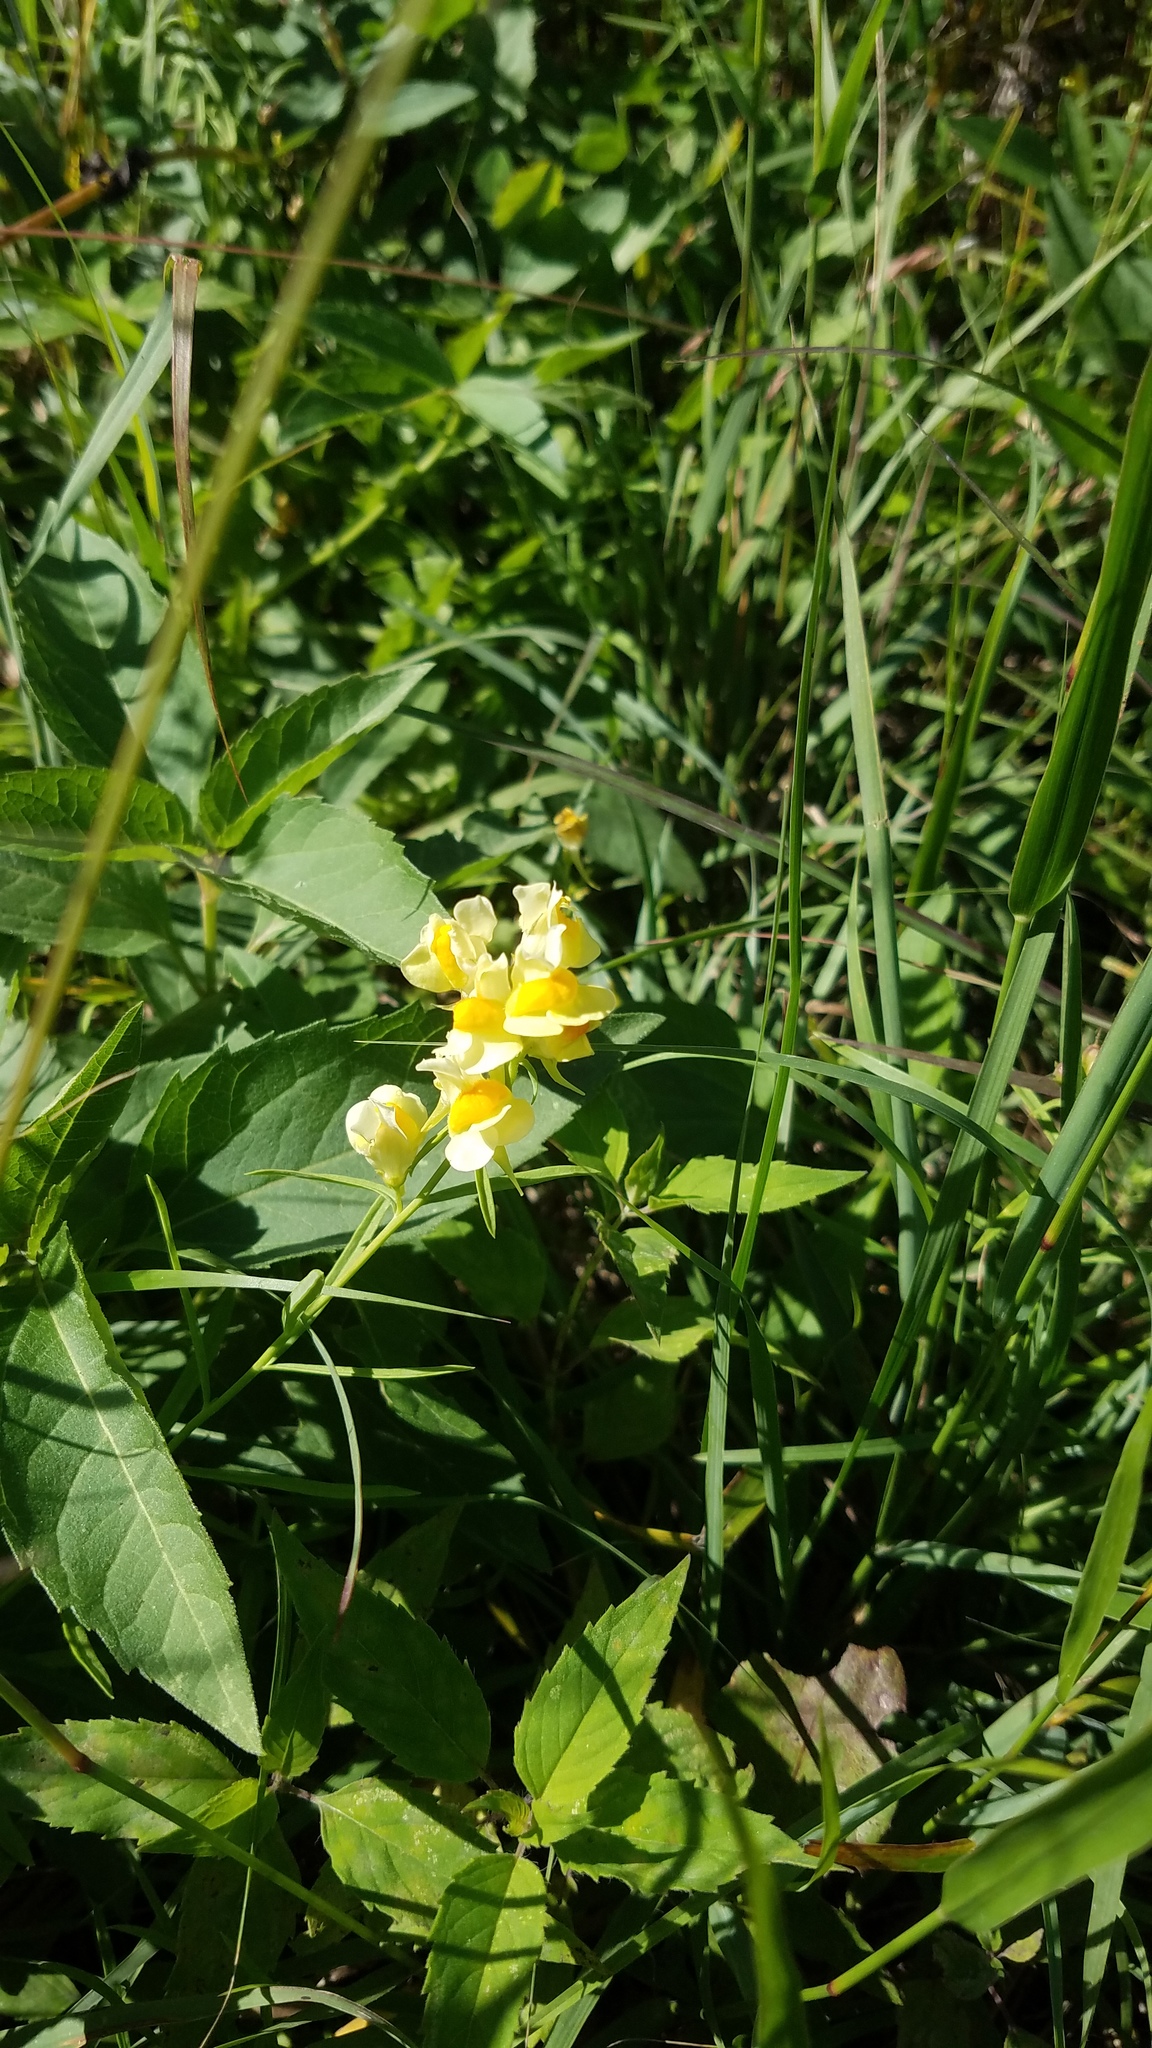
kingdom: Plantae
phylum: Tracheophyta
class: Magnoliopsida
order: Lamiales
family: Plantaginaceae
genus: Linaria
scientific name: Linaria vulgaris
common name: Butter and eggs
